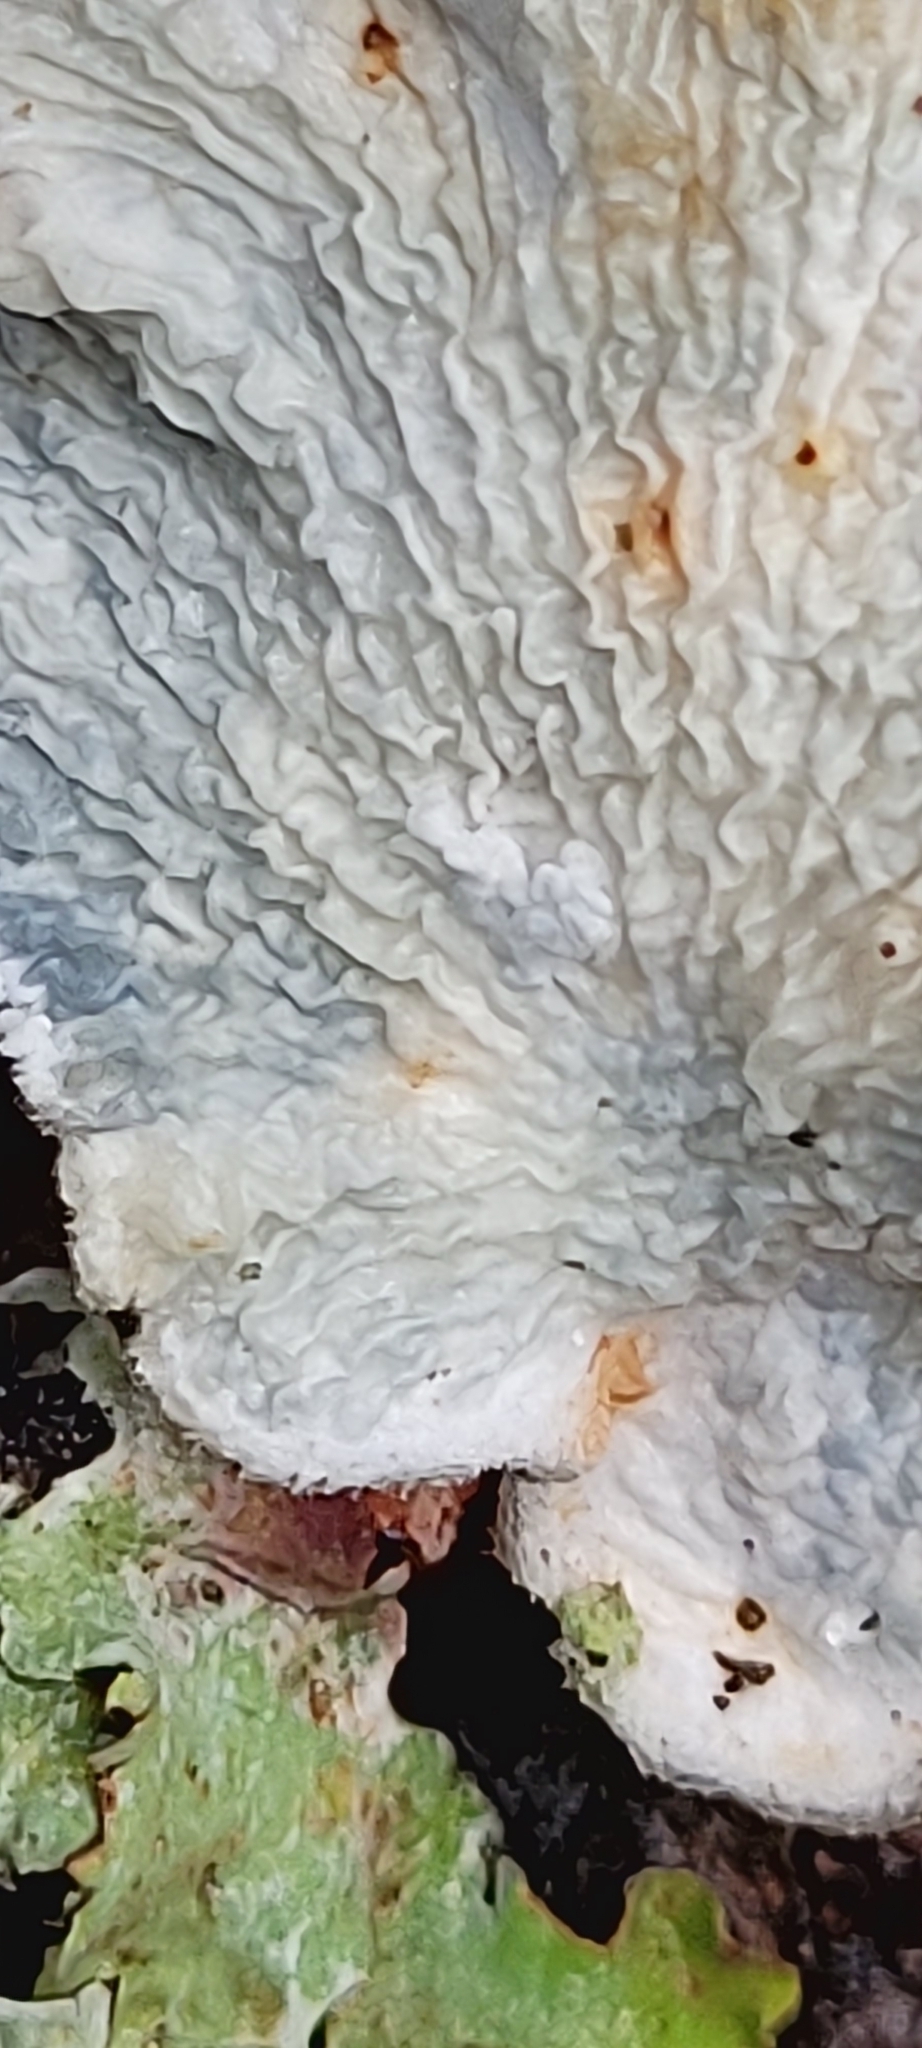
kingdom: Fungi
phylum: Basidiomycota
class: Agaricomycetes
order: Amylocorticiales
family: Amylocorticiaceae
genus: Plicaturopsis
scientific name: Plicaturopsis crispa
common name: Crimped gill
